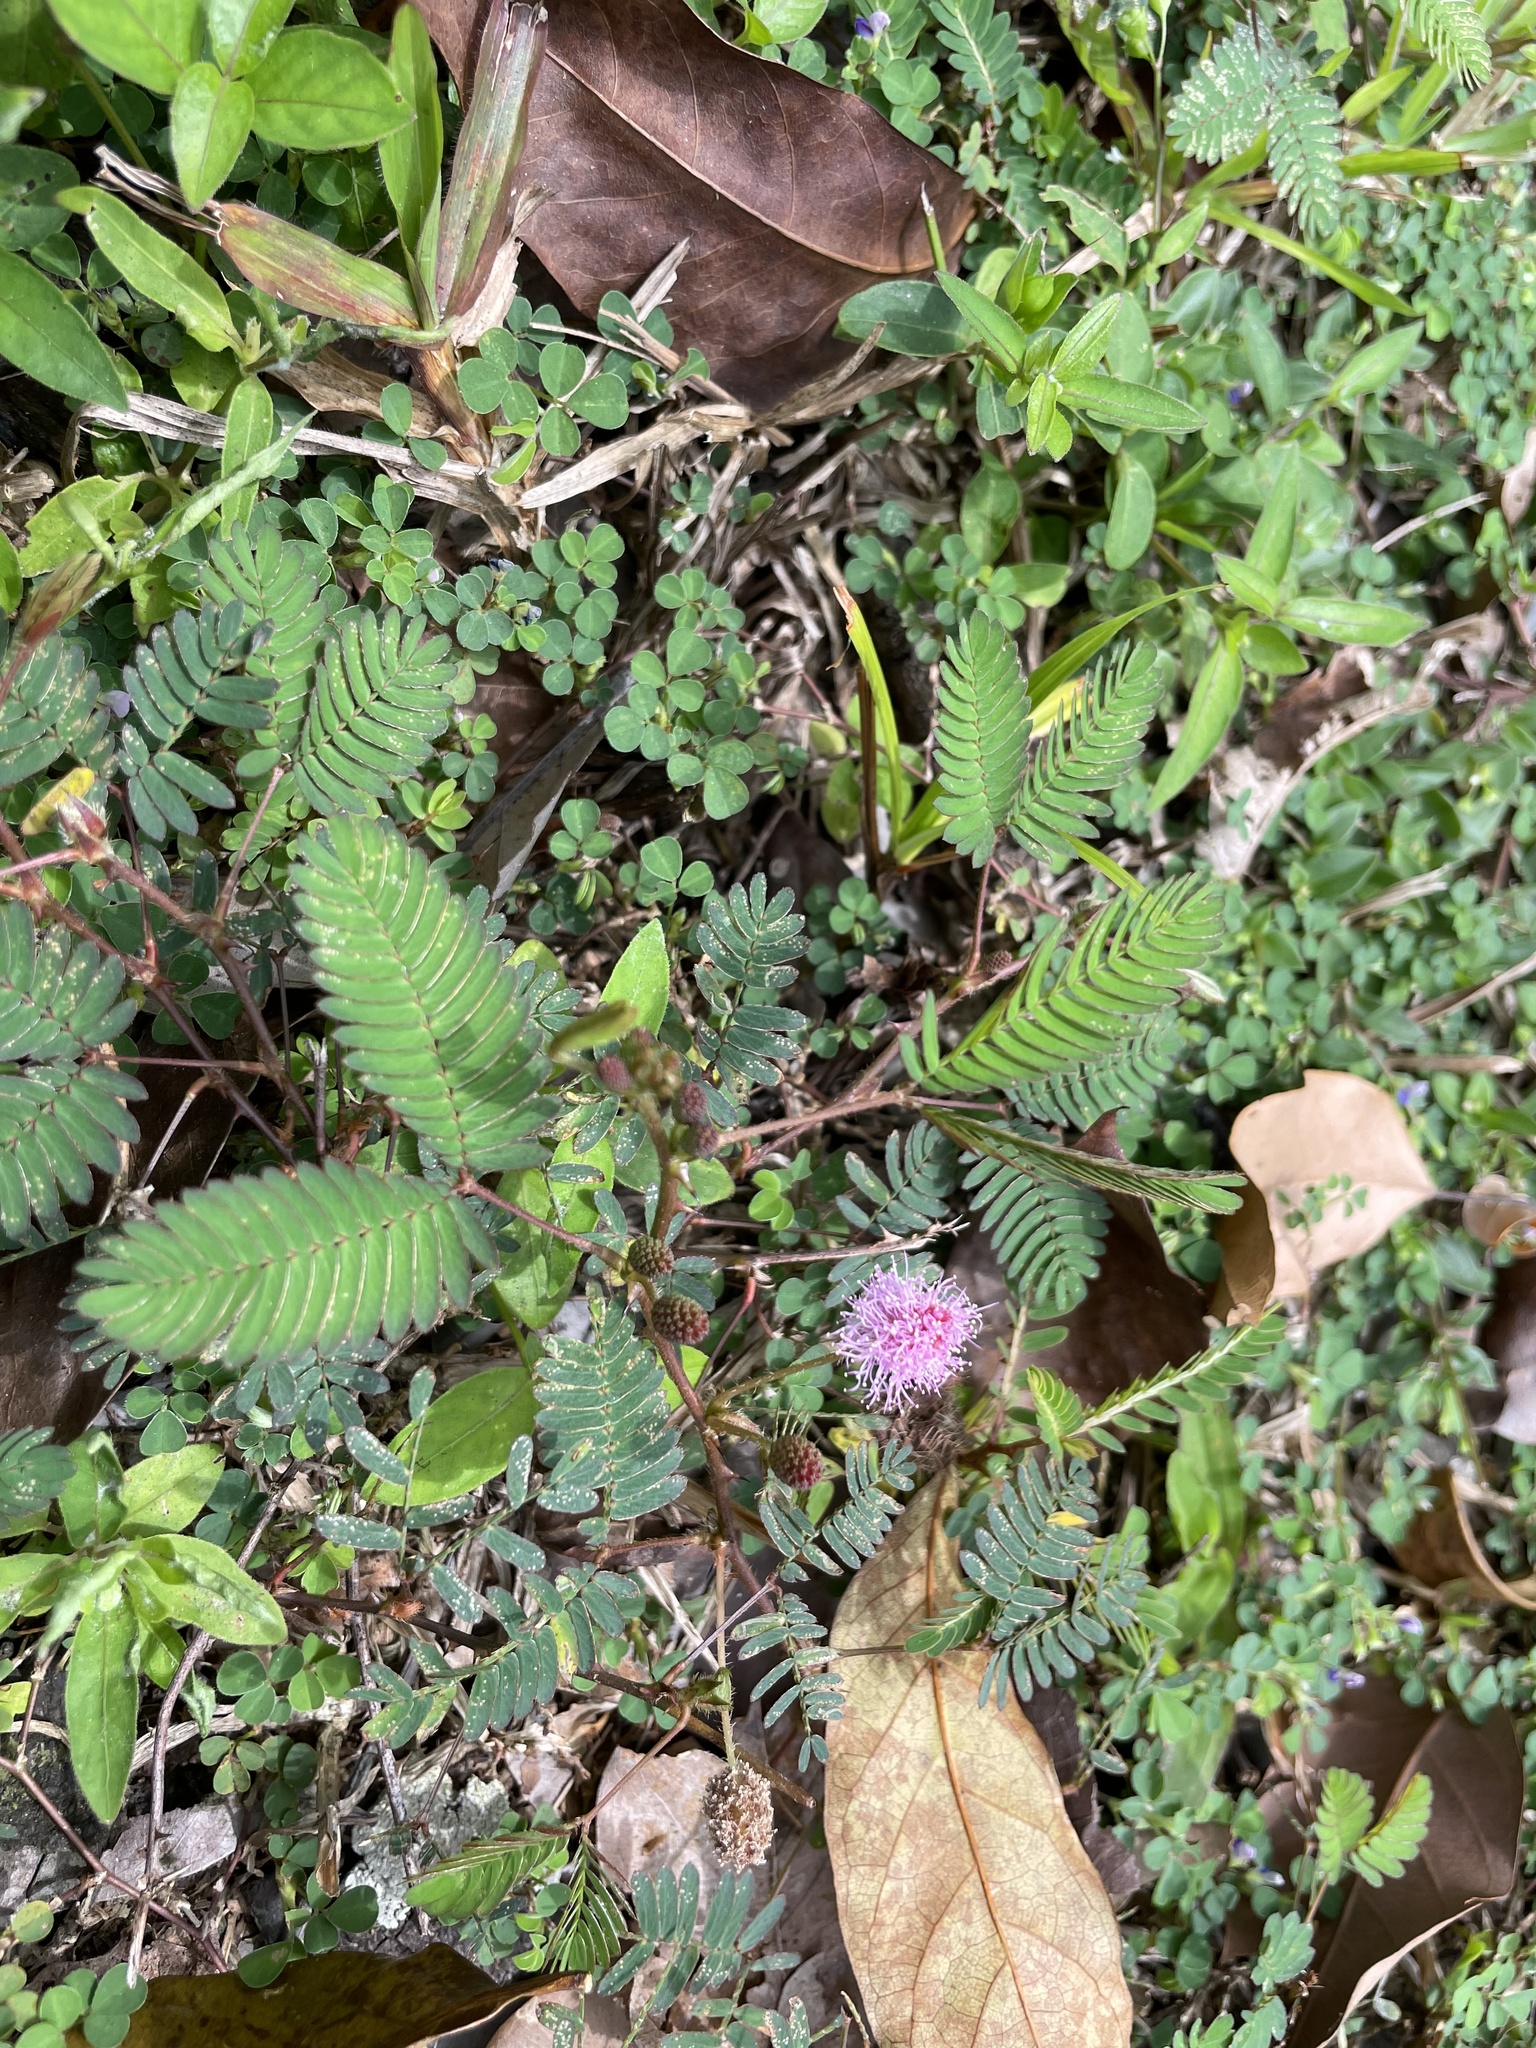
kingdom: Plantae
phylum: Tracheophyta
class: Magnoliopsida
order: Fabales
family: Fabaceae
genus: Mimosa
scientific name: Mimosa pudica
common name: Sensitive plant
